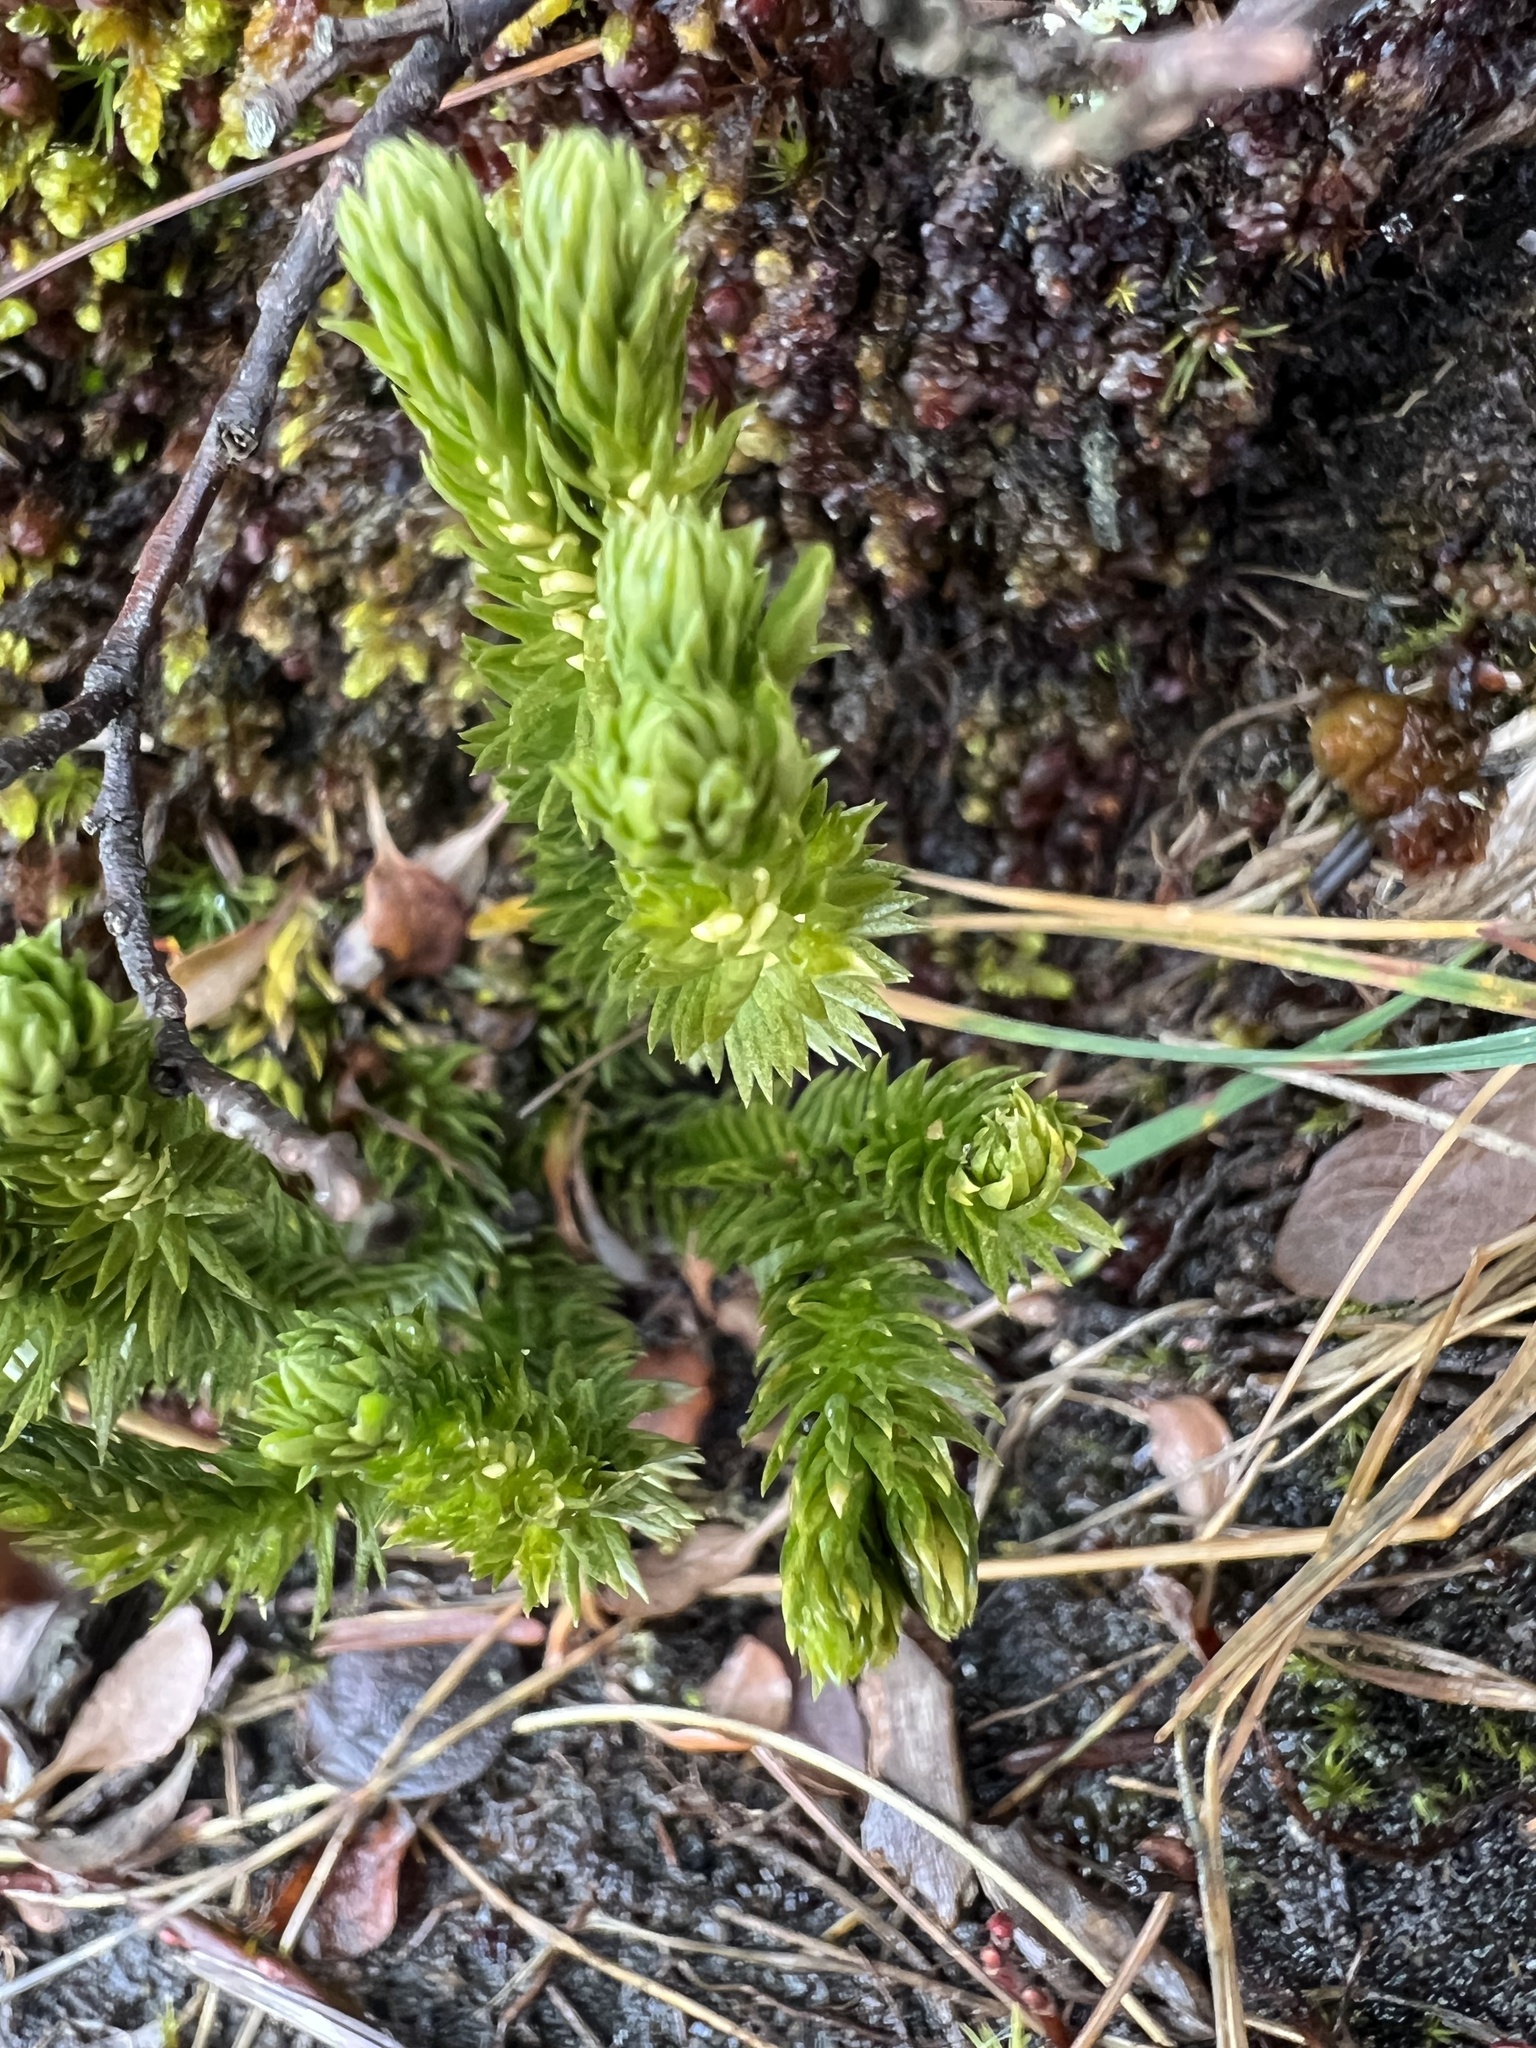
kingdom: Plantae
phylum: Tracheophyta
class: Lycopodiopsida
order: Lycopodiales
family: Lycopodiaceae
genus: Huperzia
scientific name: Huperzia selago
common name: Northern firmoss
